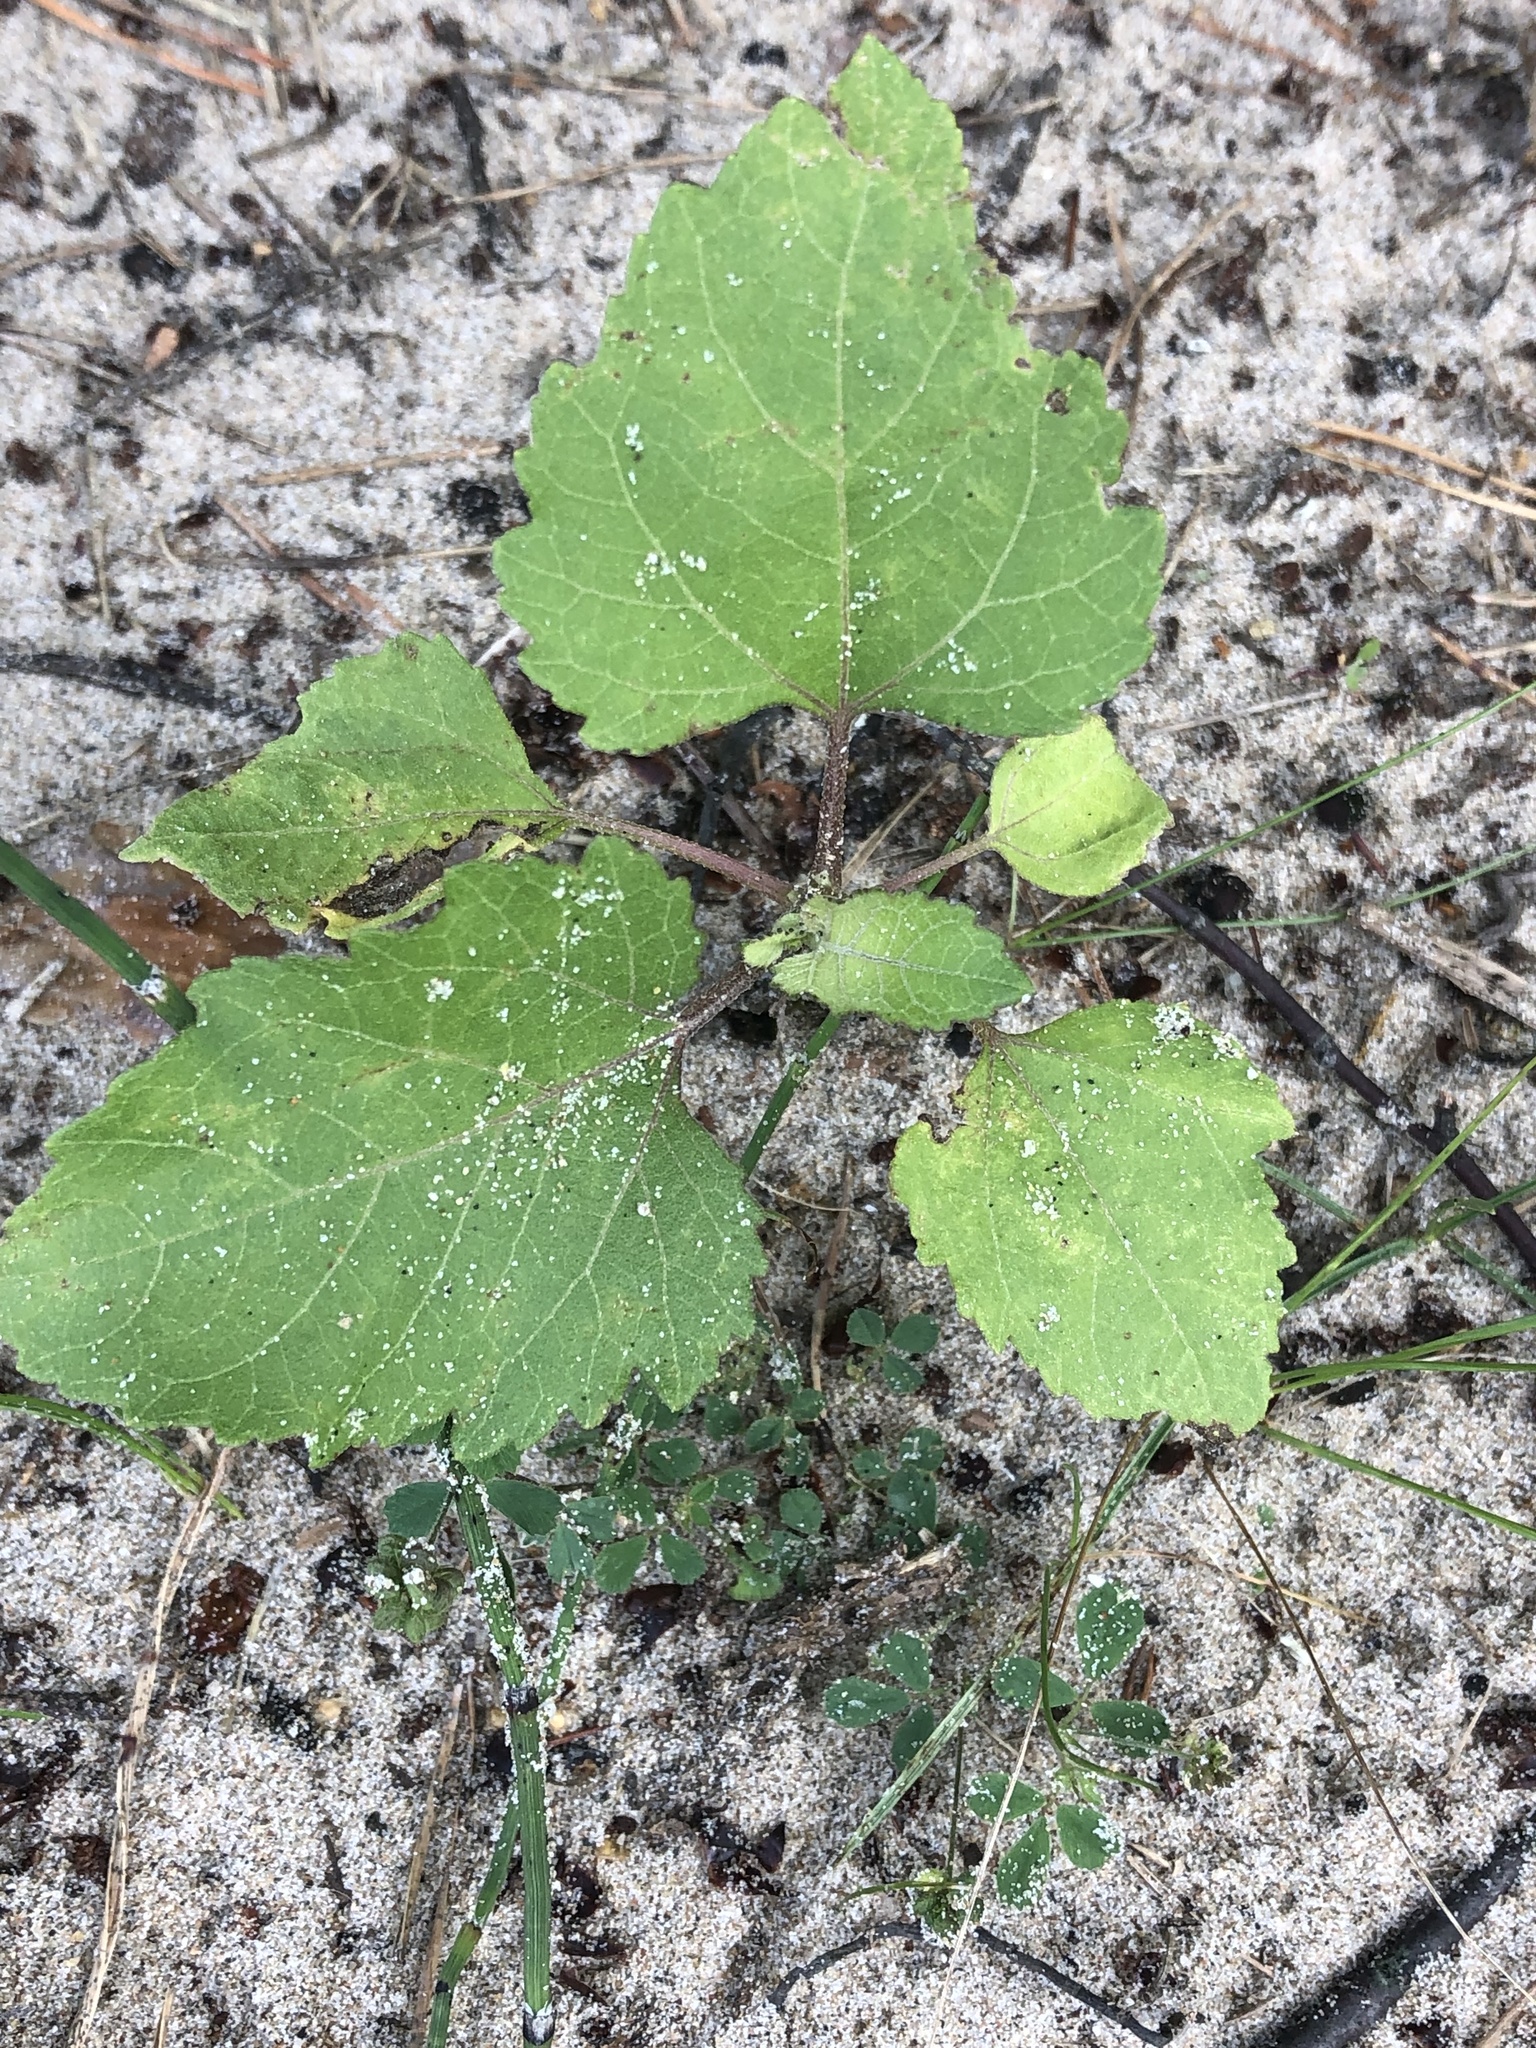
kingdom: Plantae
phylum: Tracheophyta
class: Magnoliopsida
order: Asterales
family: Asteraceae
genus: Xanthium
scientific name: Xanthium strumarium
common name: Rough cocklebur
